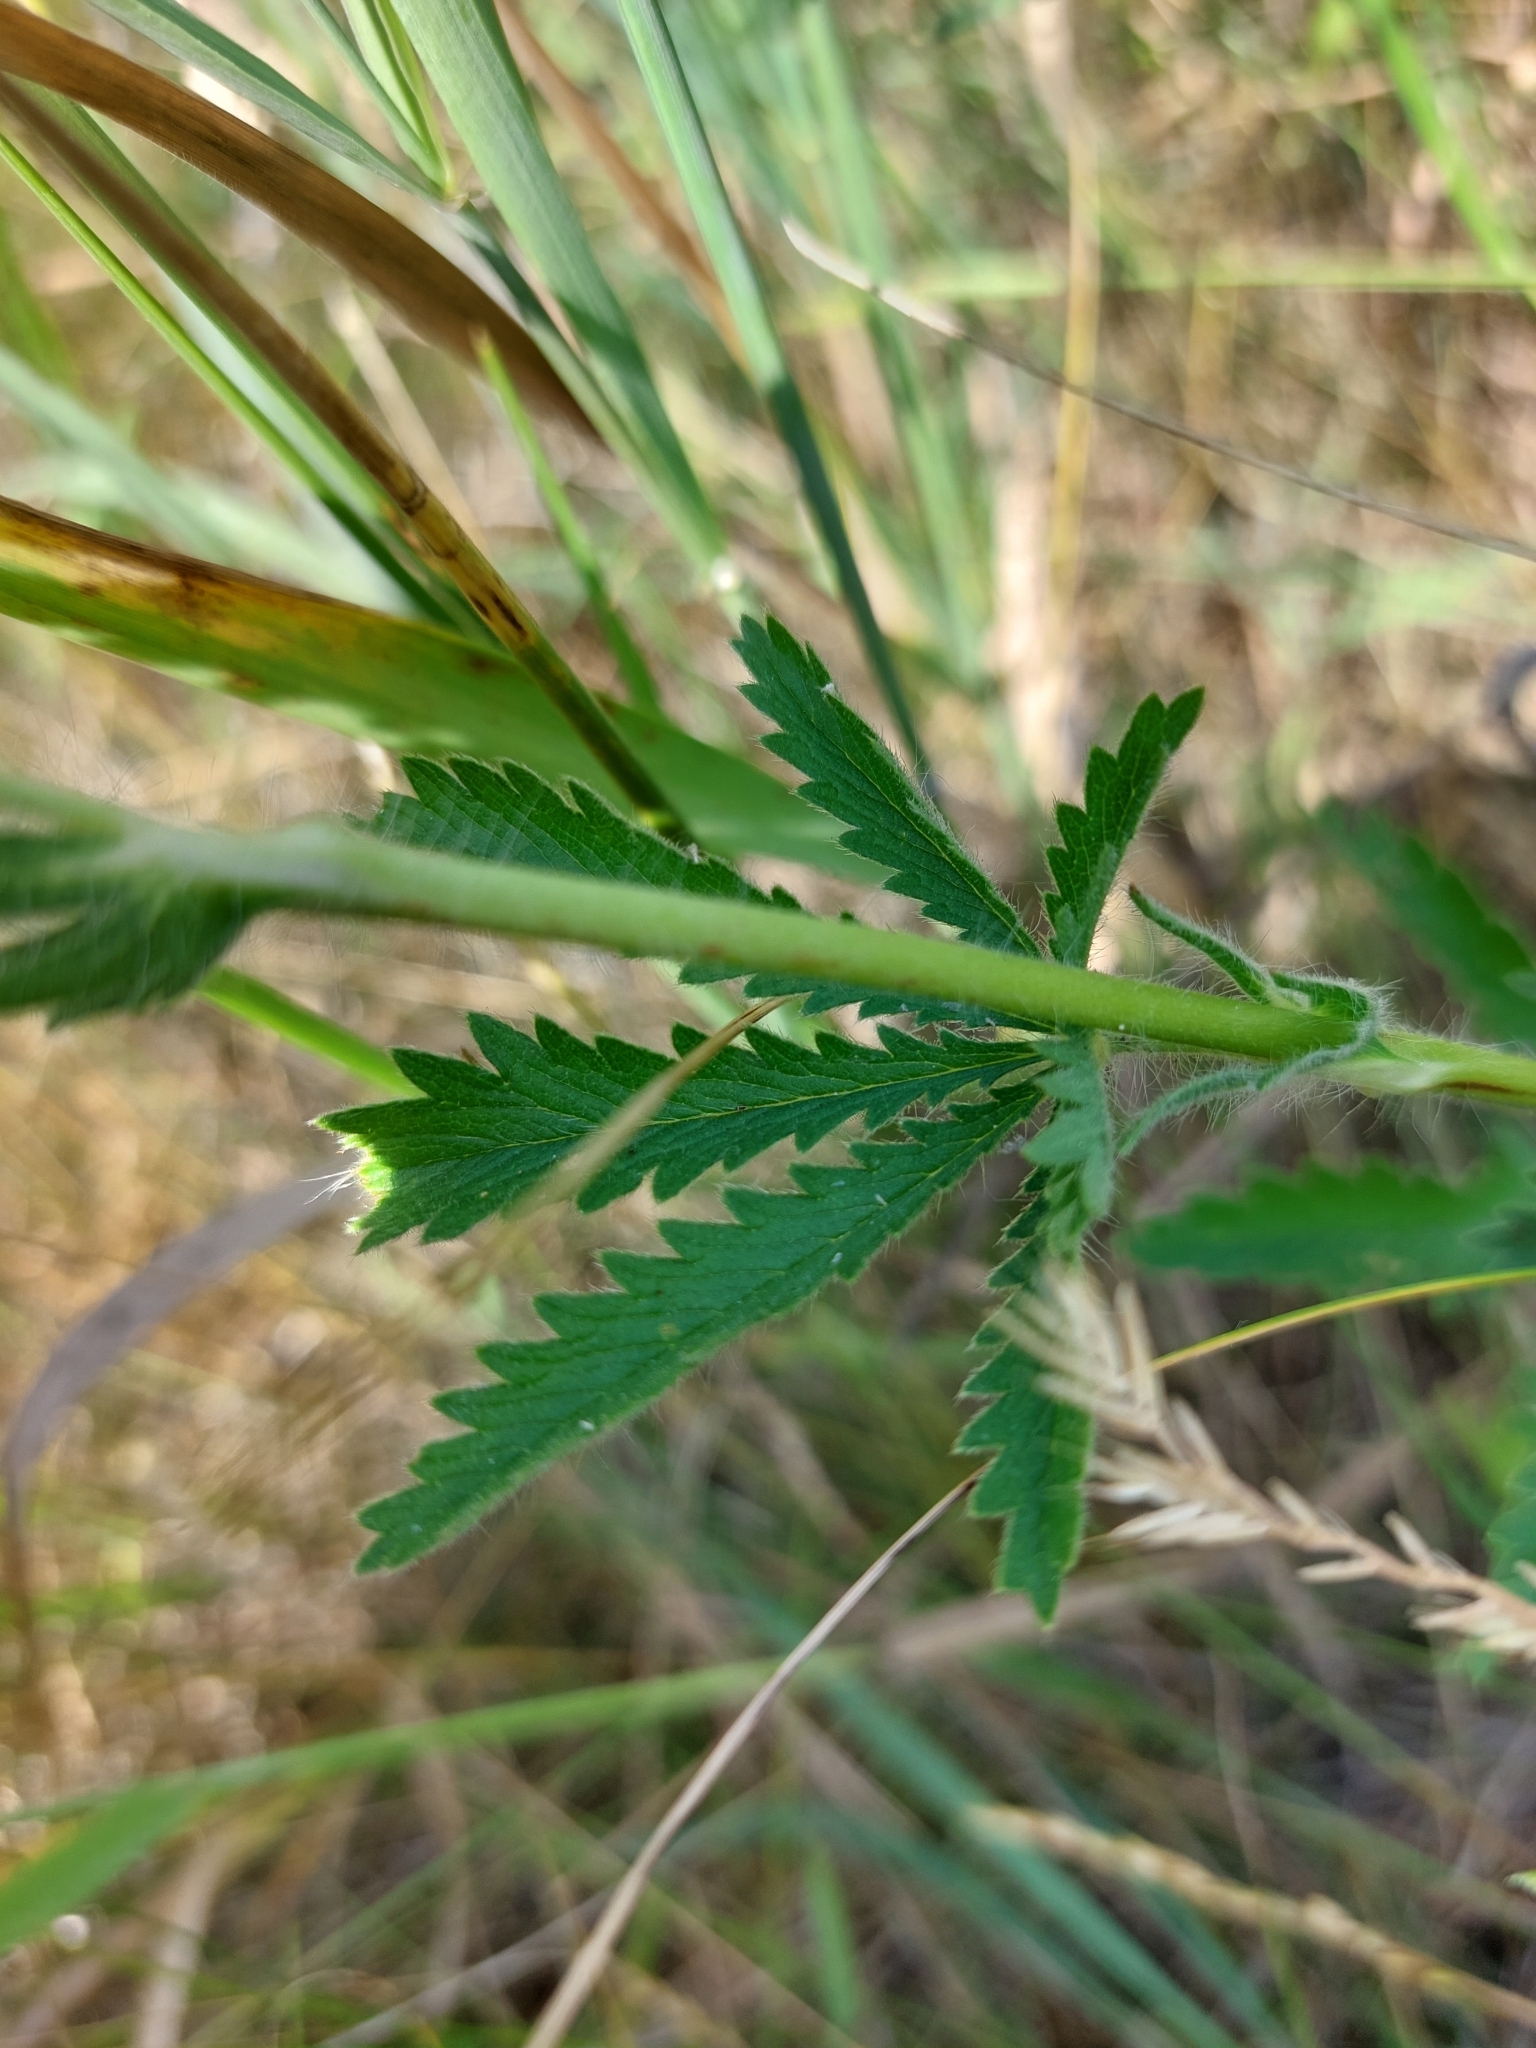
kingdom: Plantae
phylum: Tracheophyta
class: Magnoliopsida
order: Rosales
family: Rosaceae
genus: Potentilla
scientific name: Potentilla recta
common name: Sulphur cinquefoil
